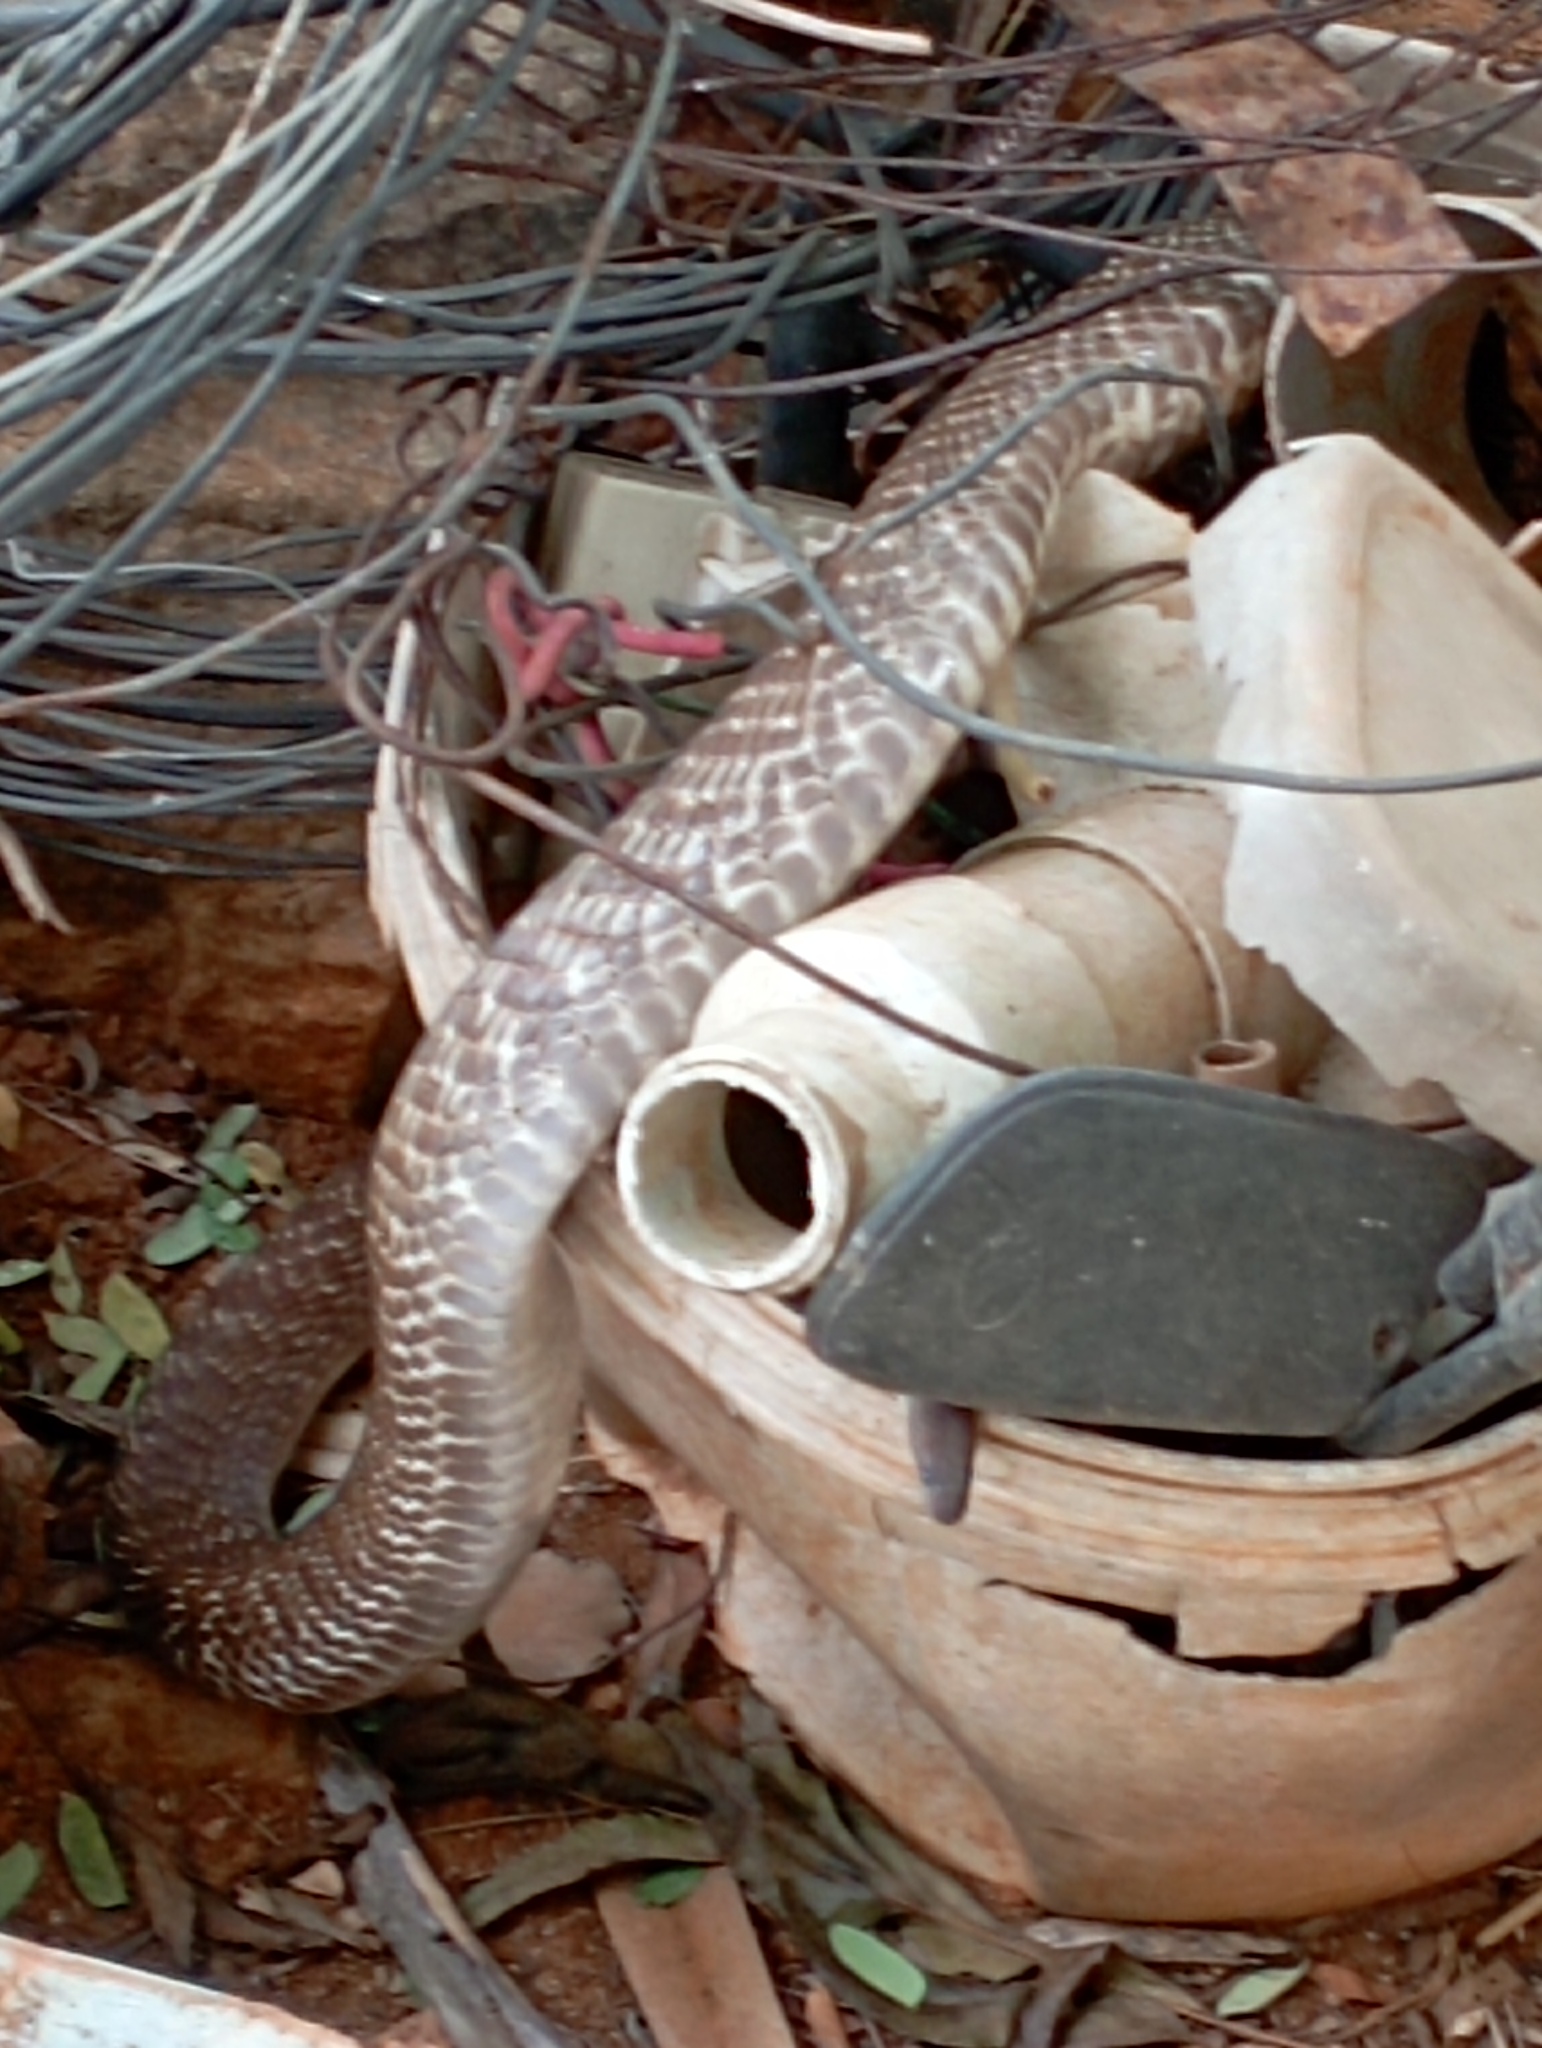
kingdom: Animalia
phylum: Chordata
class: Squamata
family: Elapidae
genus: Naja
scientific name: Naja naja
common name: Indian cobra
